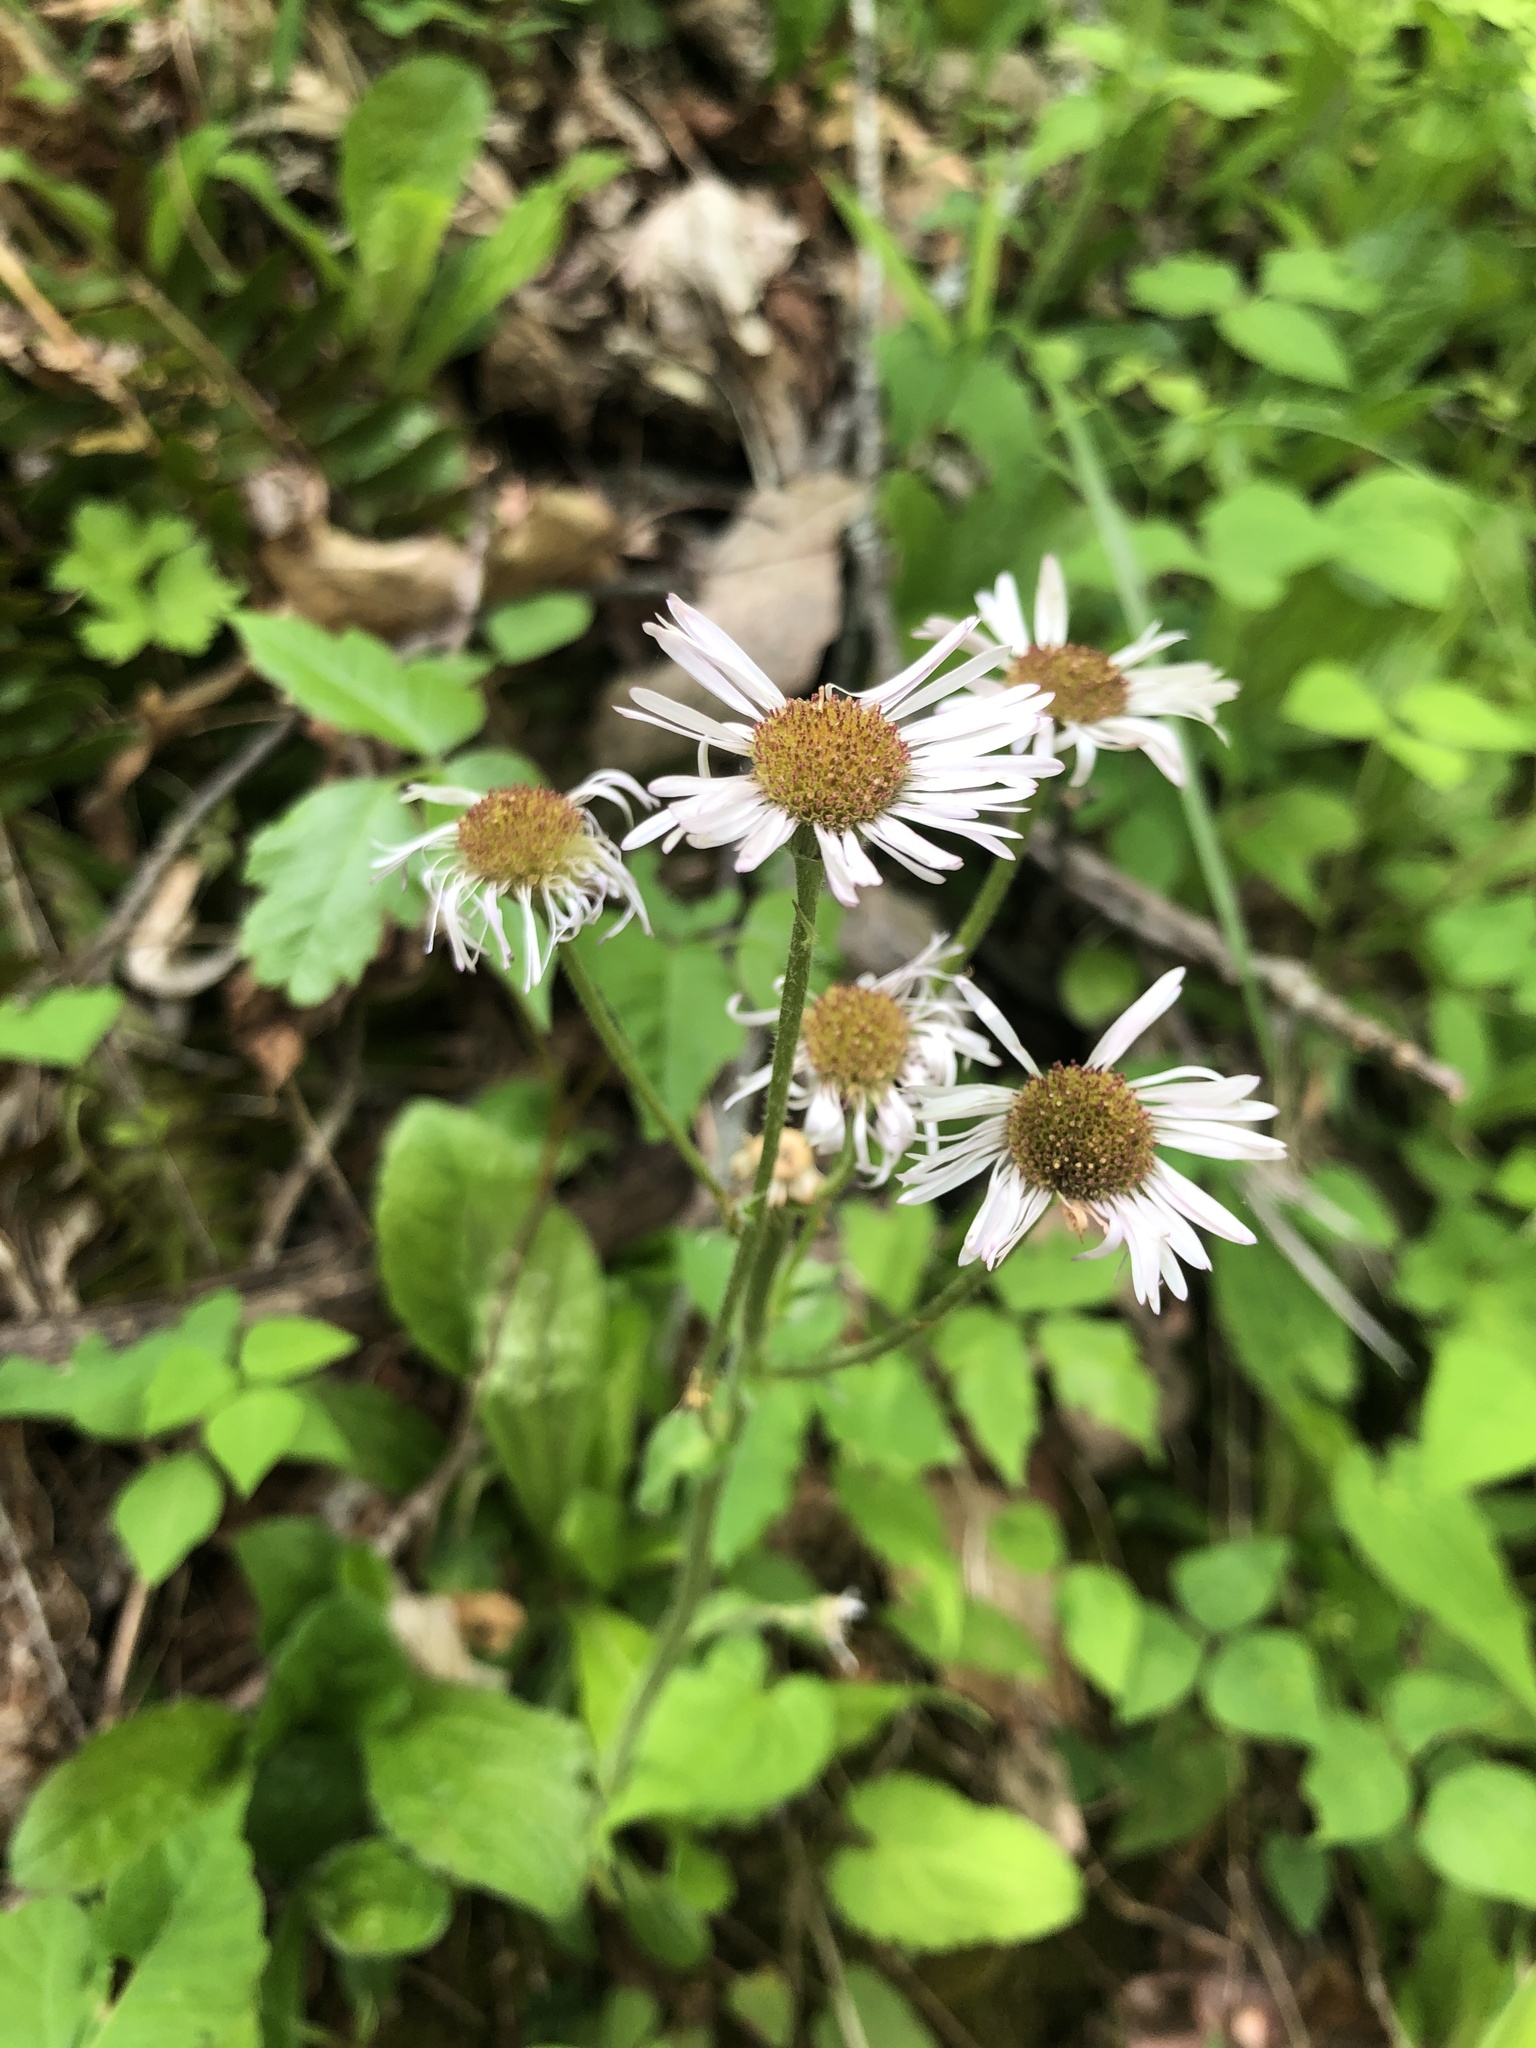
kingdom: Plantae
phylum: Tracheophyta
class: Magnoliopsida
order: Asterales
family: Asteraceae
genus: Erigeron
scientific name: Erigeron pulchellus
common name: Hairy fleabane
